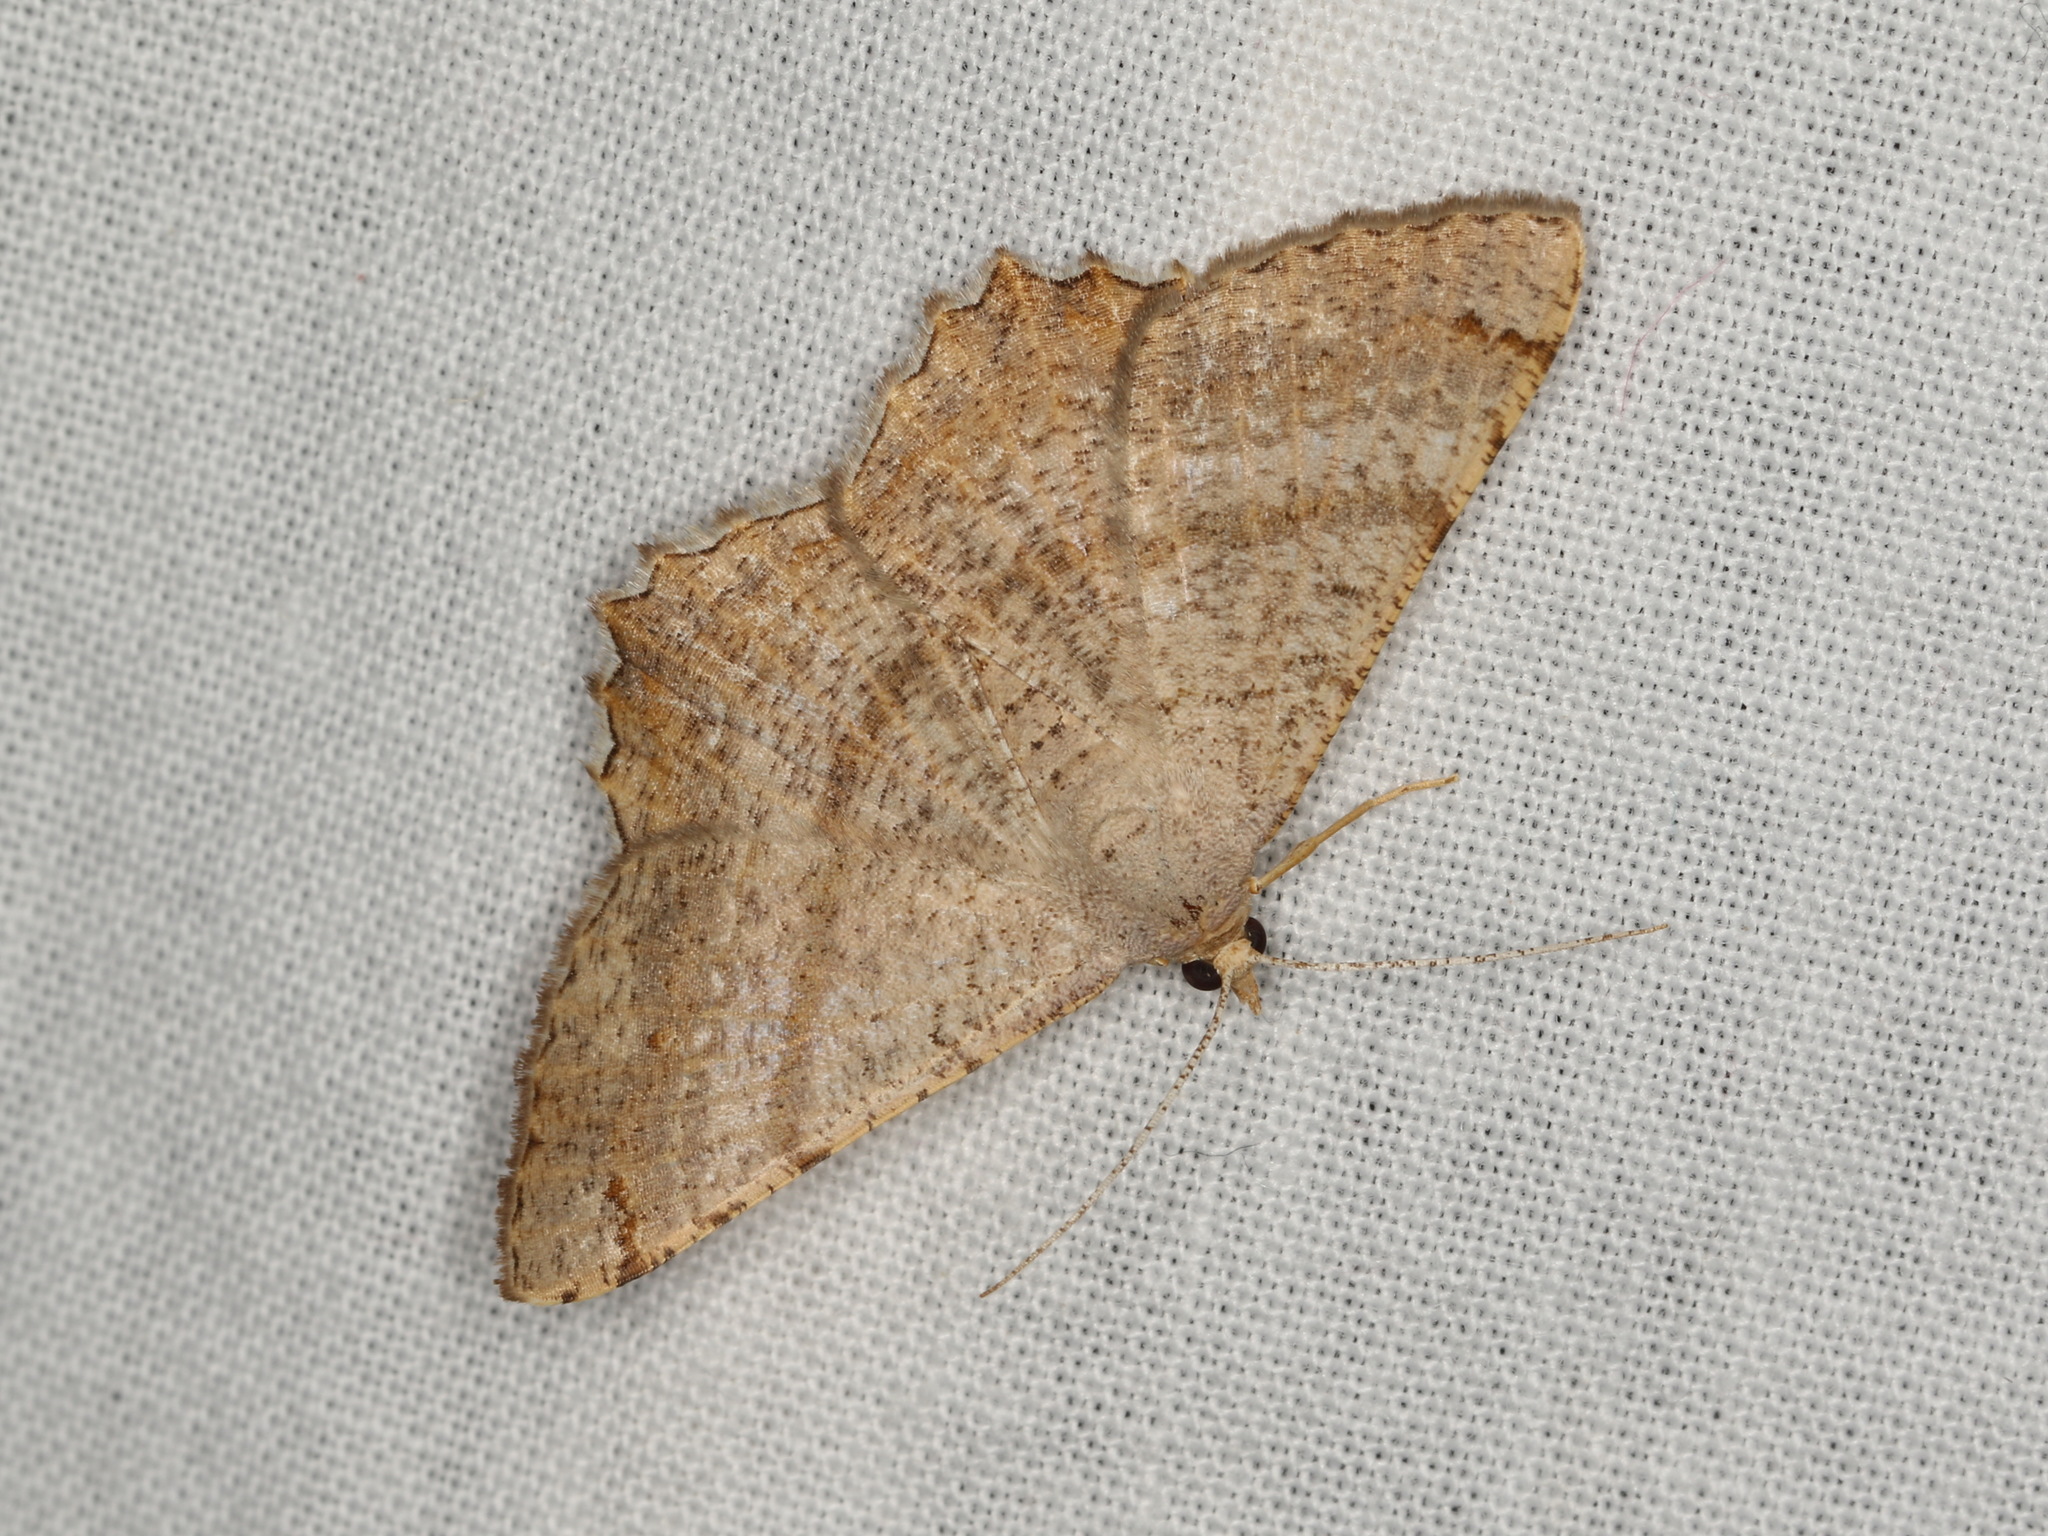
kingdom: Animalia
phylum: Arthropoda
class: Insecta
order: Lepidoptera
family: Geometridae
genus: Oxymacaria
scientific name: Oxymacaria odontias
